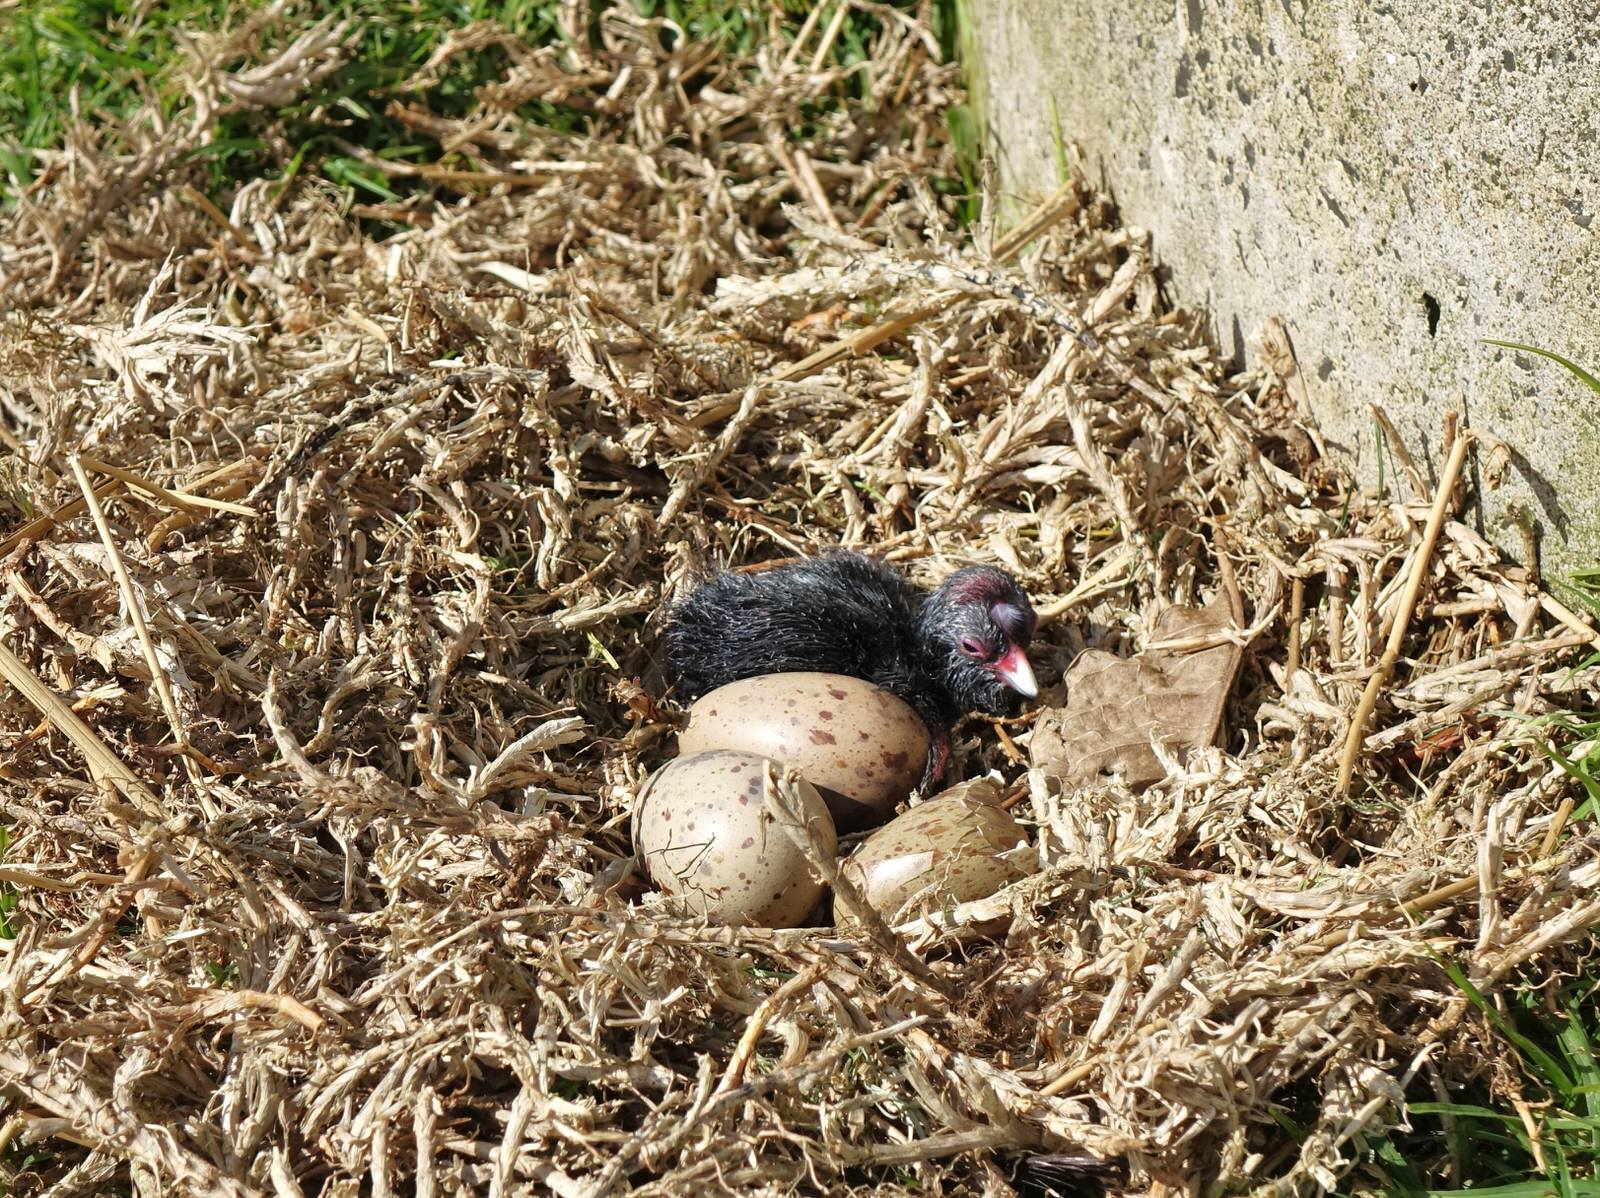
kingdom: Animalia
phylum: Chordata
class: Aves
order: Gruiformes
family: Rallidae
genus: Porphyrio
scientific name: Porphyrio melanotus
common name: Australasian swamphen
